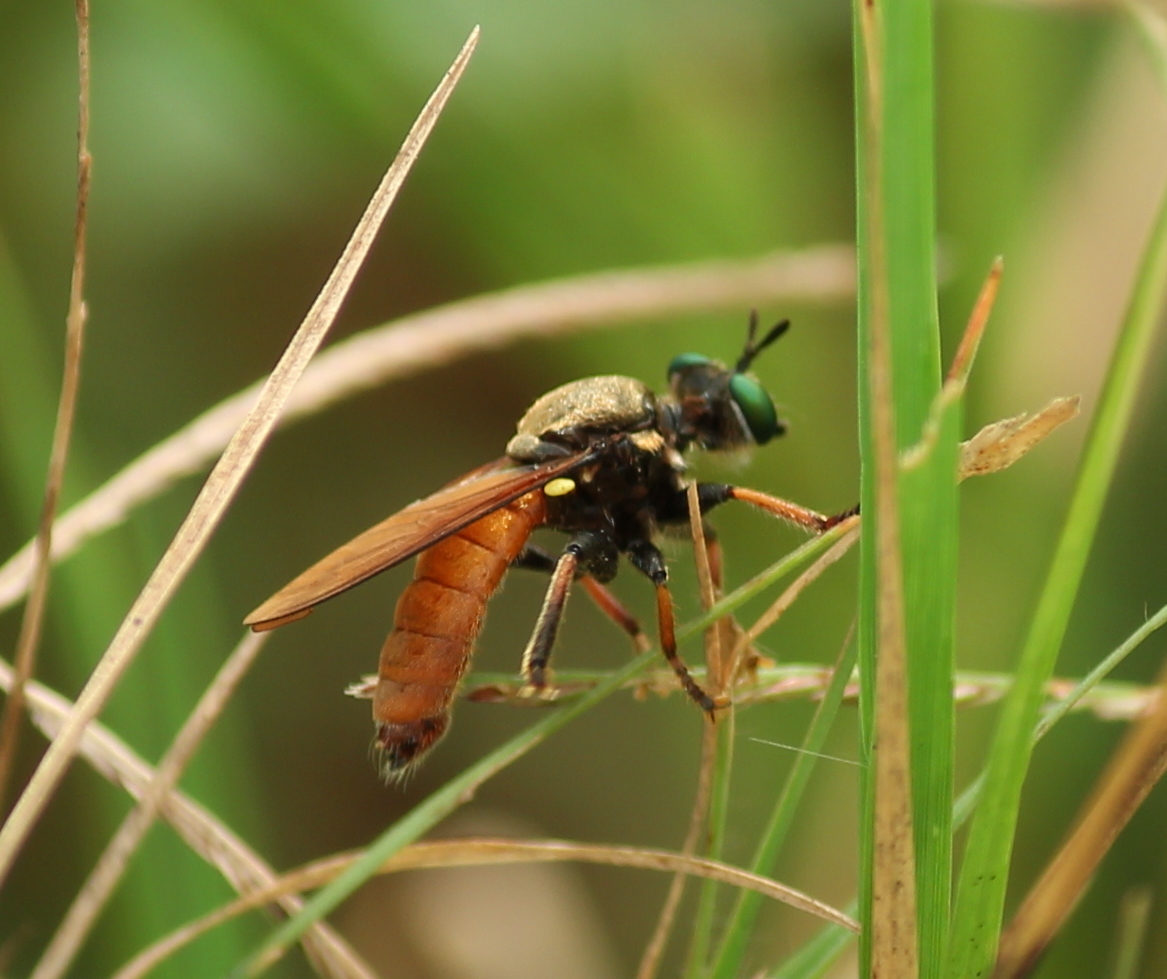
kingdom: Animalia
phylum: Arthropoda
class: Insecta
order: Diptera
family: Asilidae
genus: Lampria
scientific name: Lampria rubriventris
